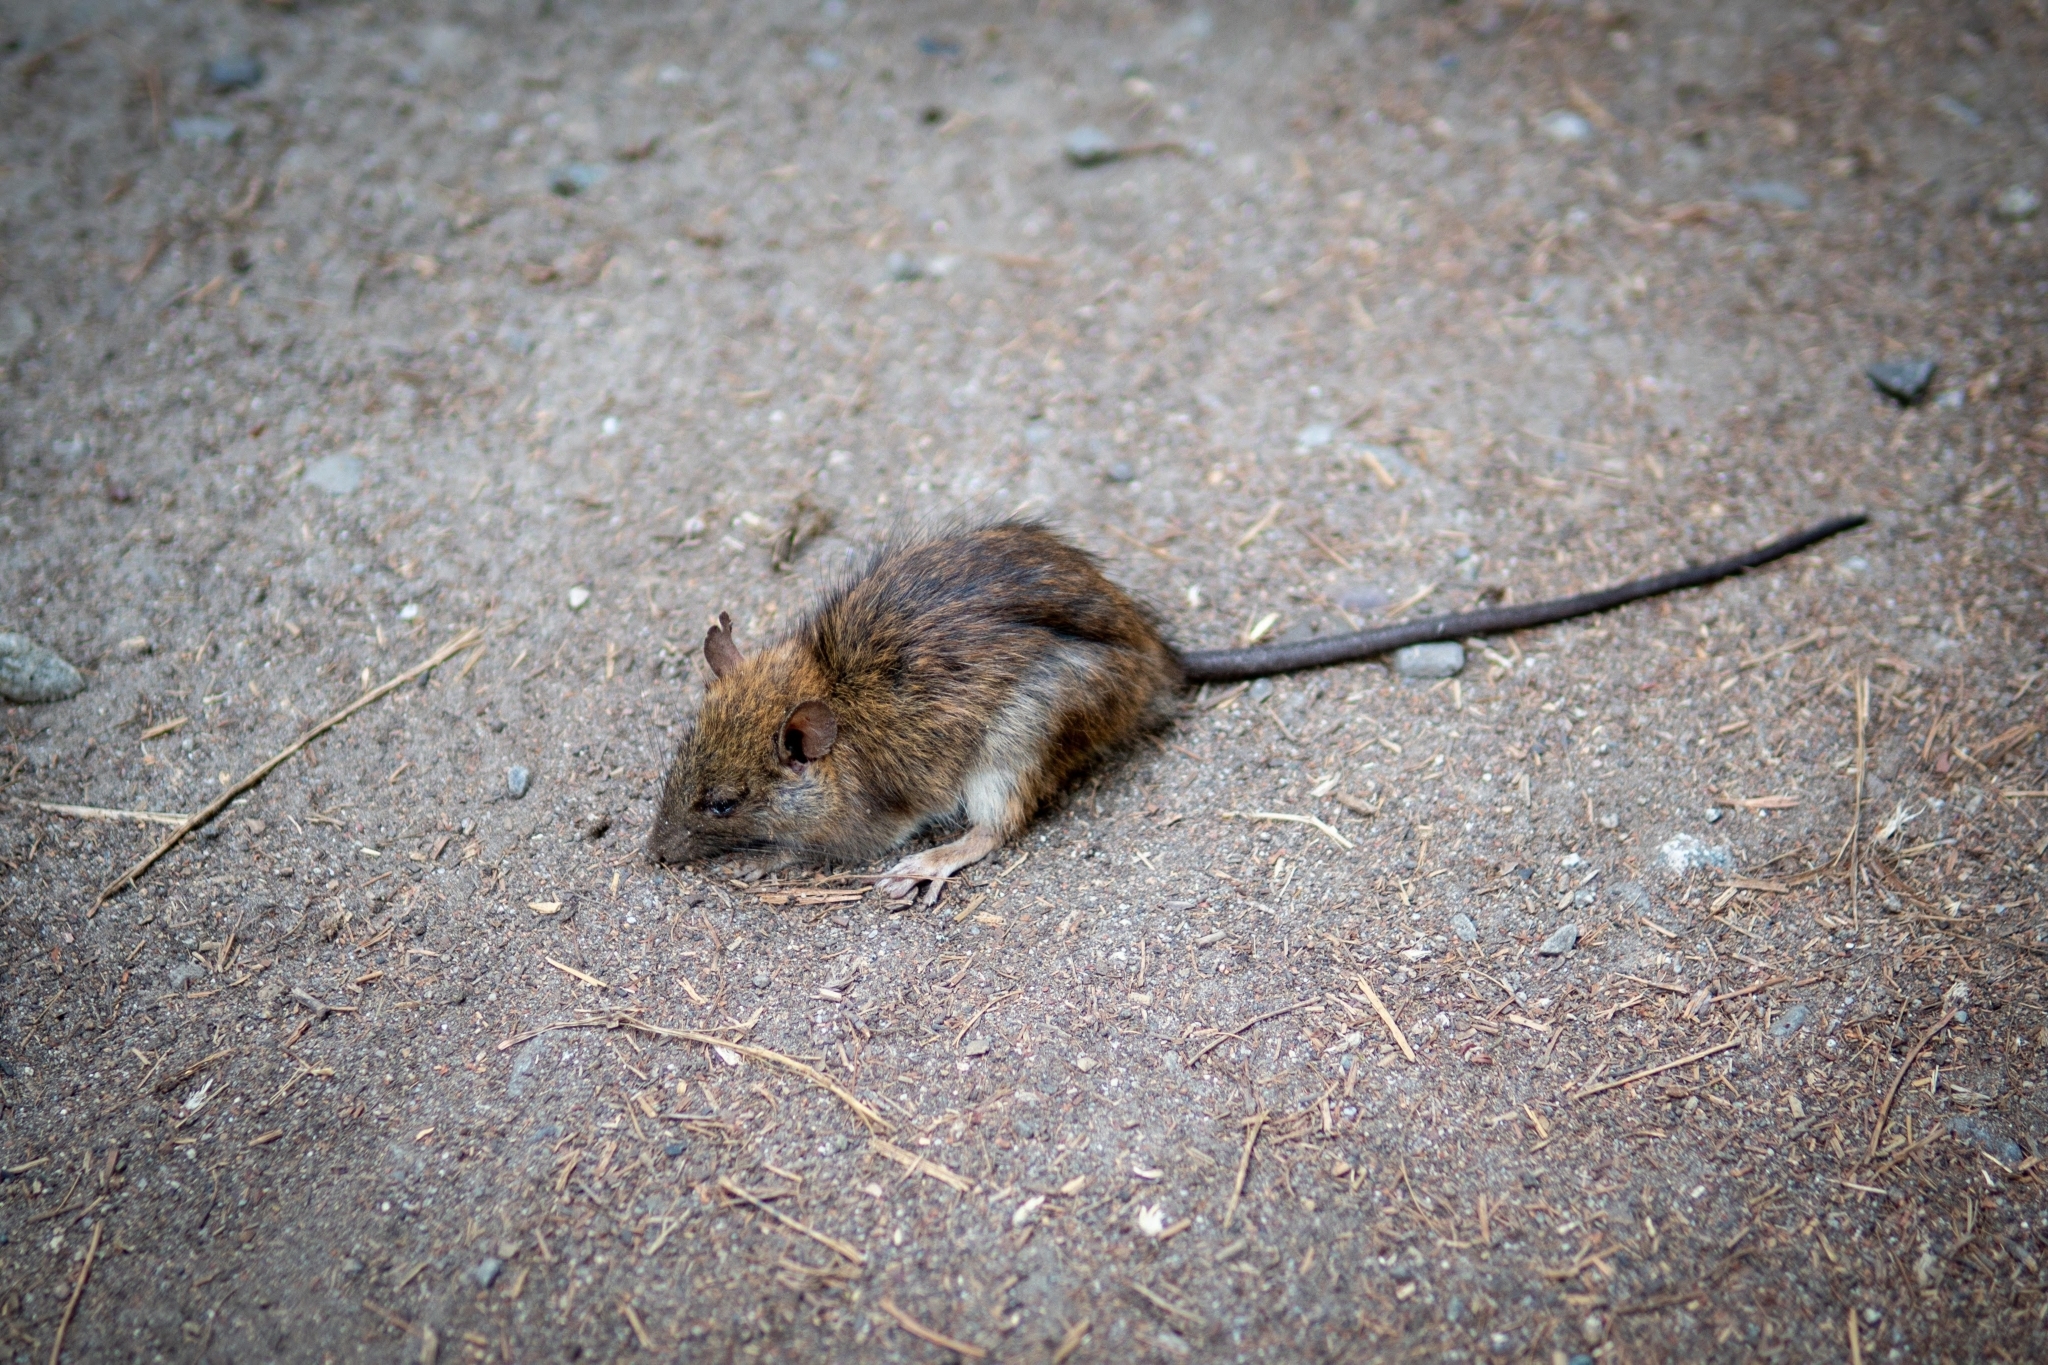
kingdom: Animalia
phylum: Chordata
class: Mammalia
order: Rodentia
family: Muridae
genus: Rattus
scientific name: Rattus rattus
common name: Black rat
